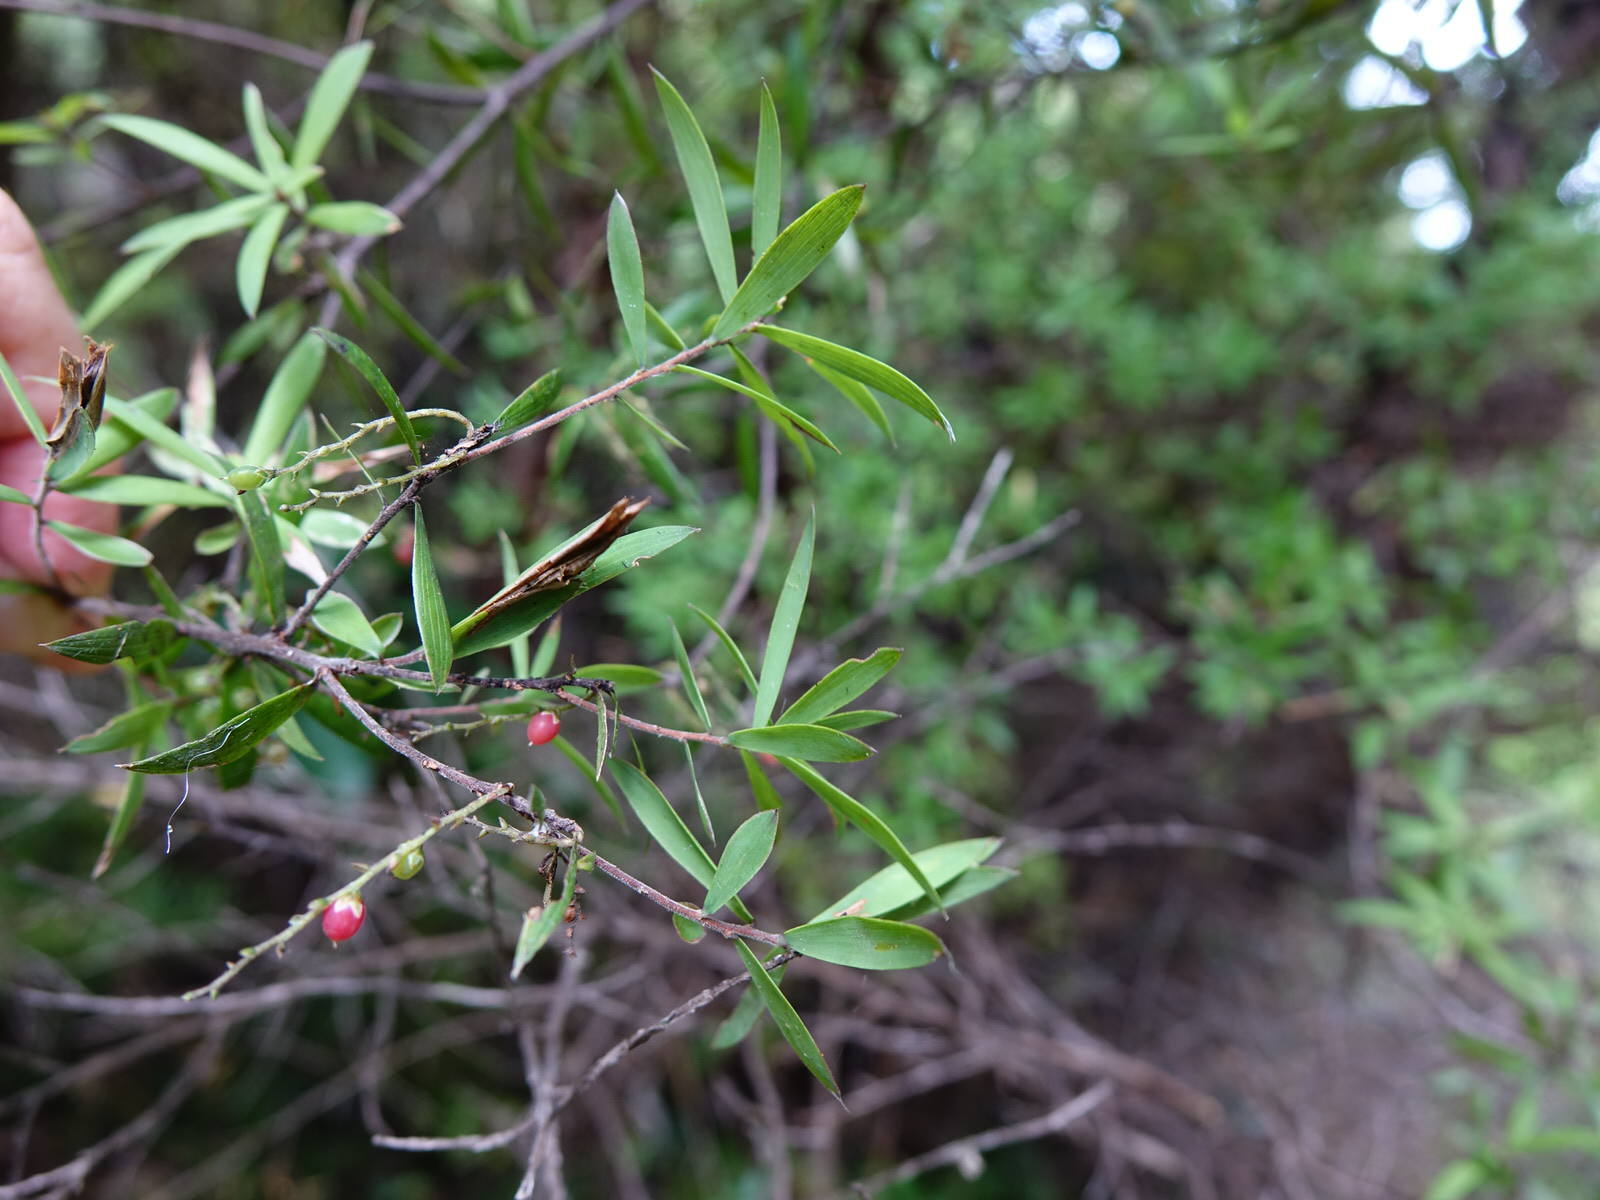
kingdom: Plantae
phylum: Tracheophyta
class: Magnoliopsida
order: Ericales
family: Ericaceae
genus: Leucopogon
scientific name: Leucopogon fasciculatus
